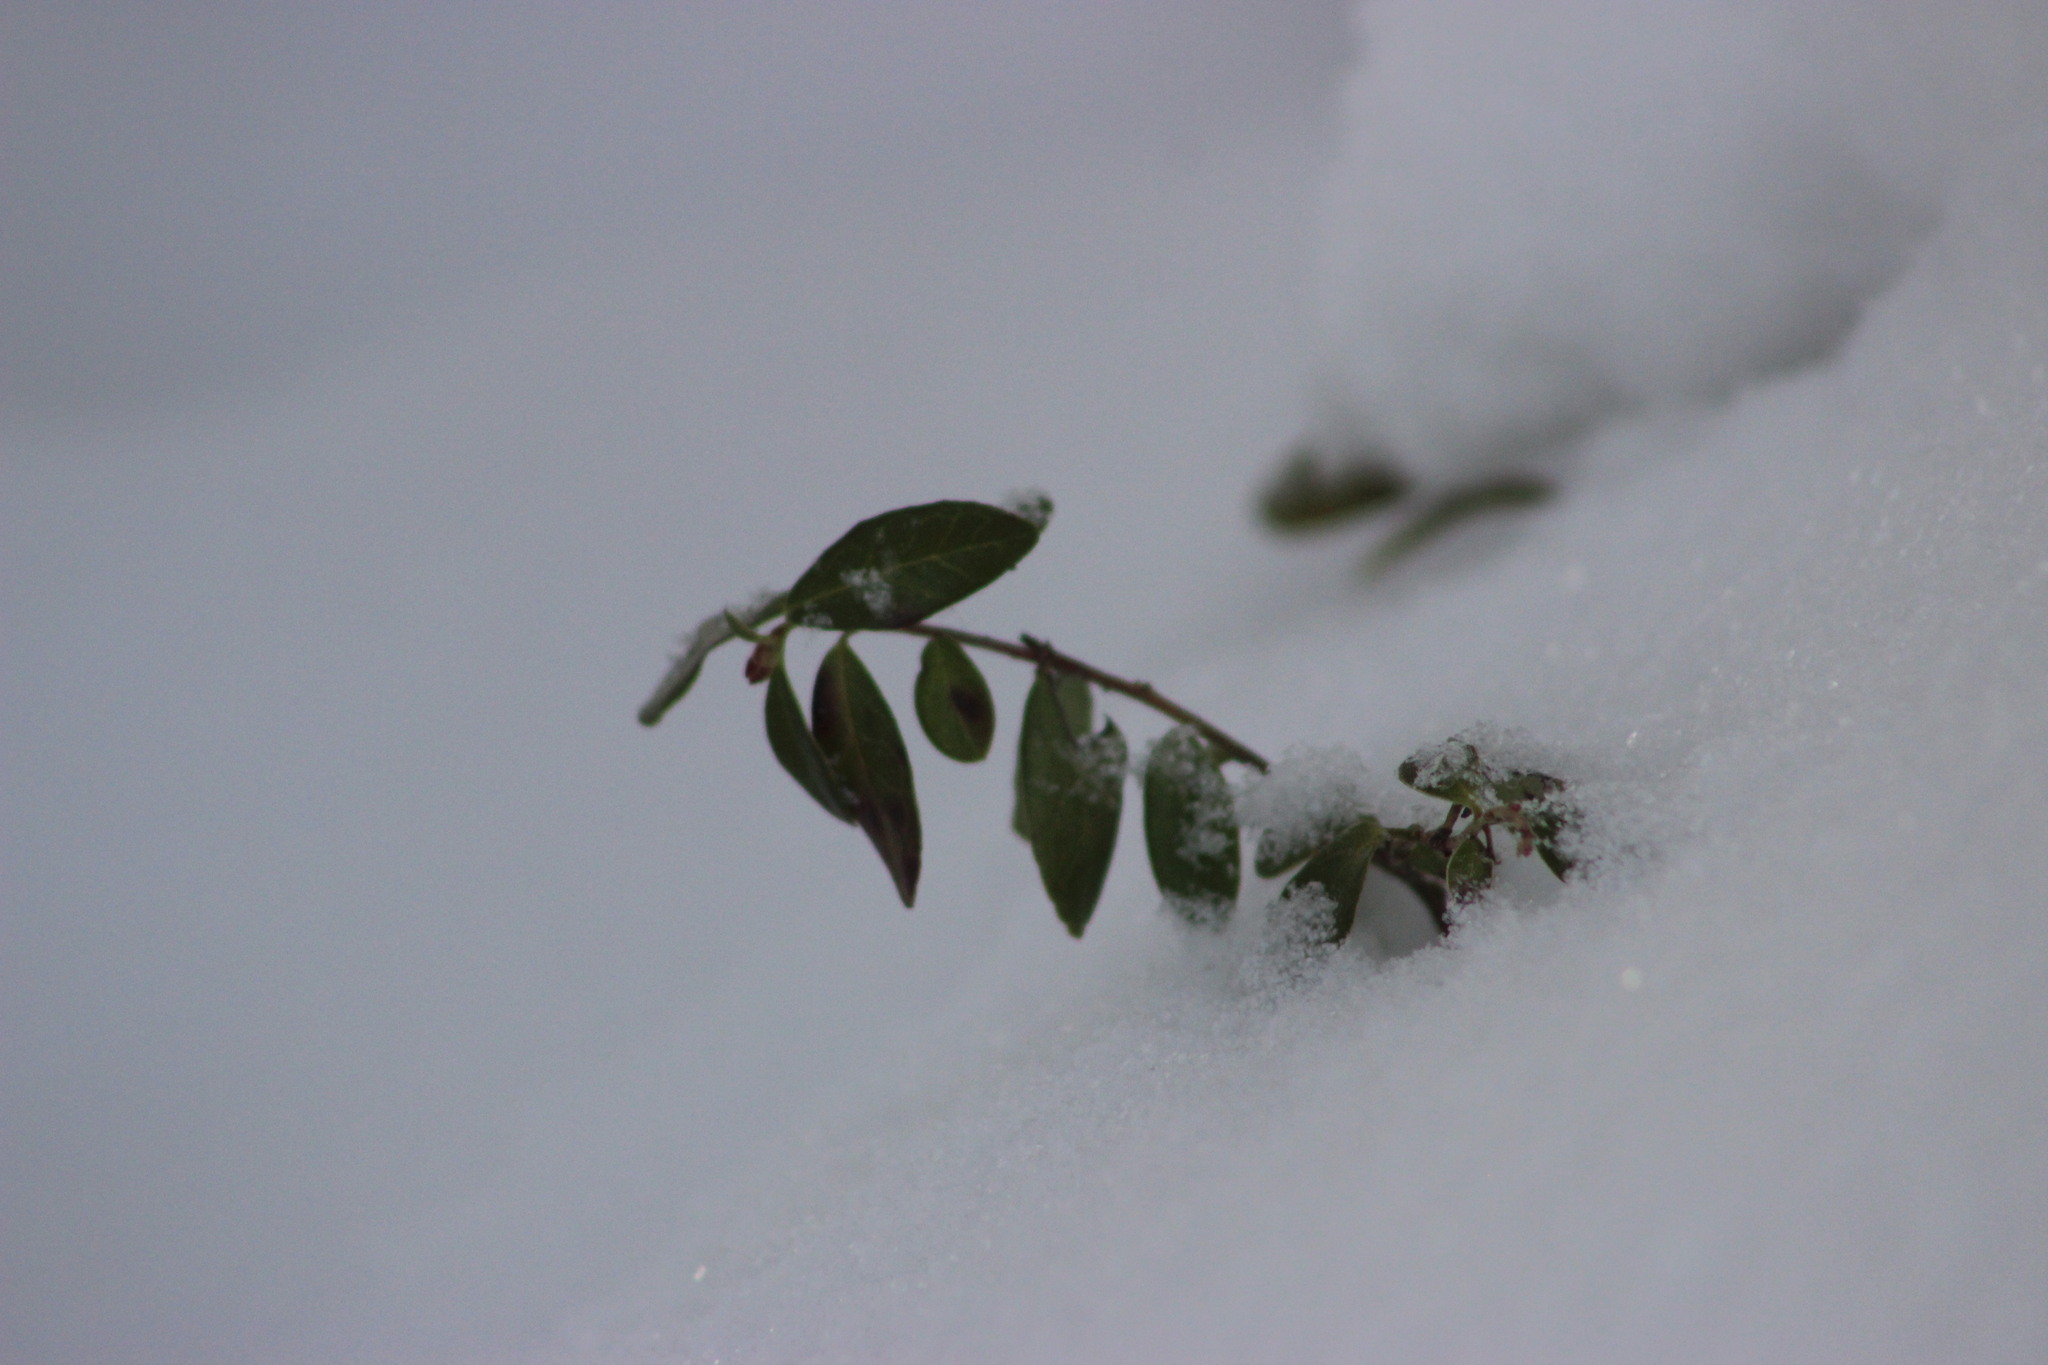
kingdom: Plantae
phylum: Tracheophyta
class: Magnoliopsida
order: Ericales
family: Ericaceae
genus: Vaccinium
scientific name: Vaccinium vitis-idaea
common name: Cowberry
